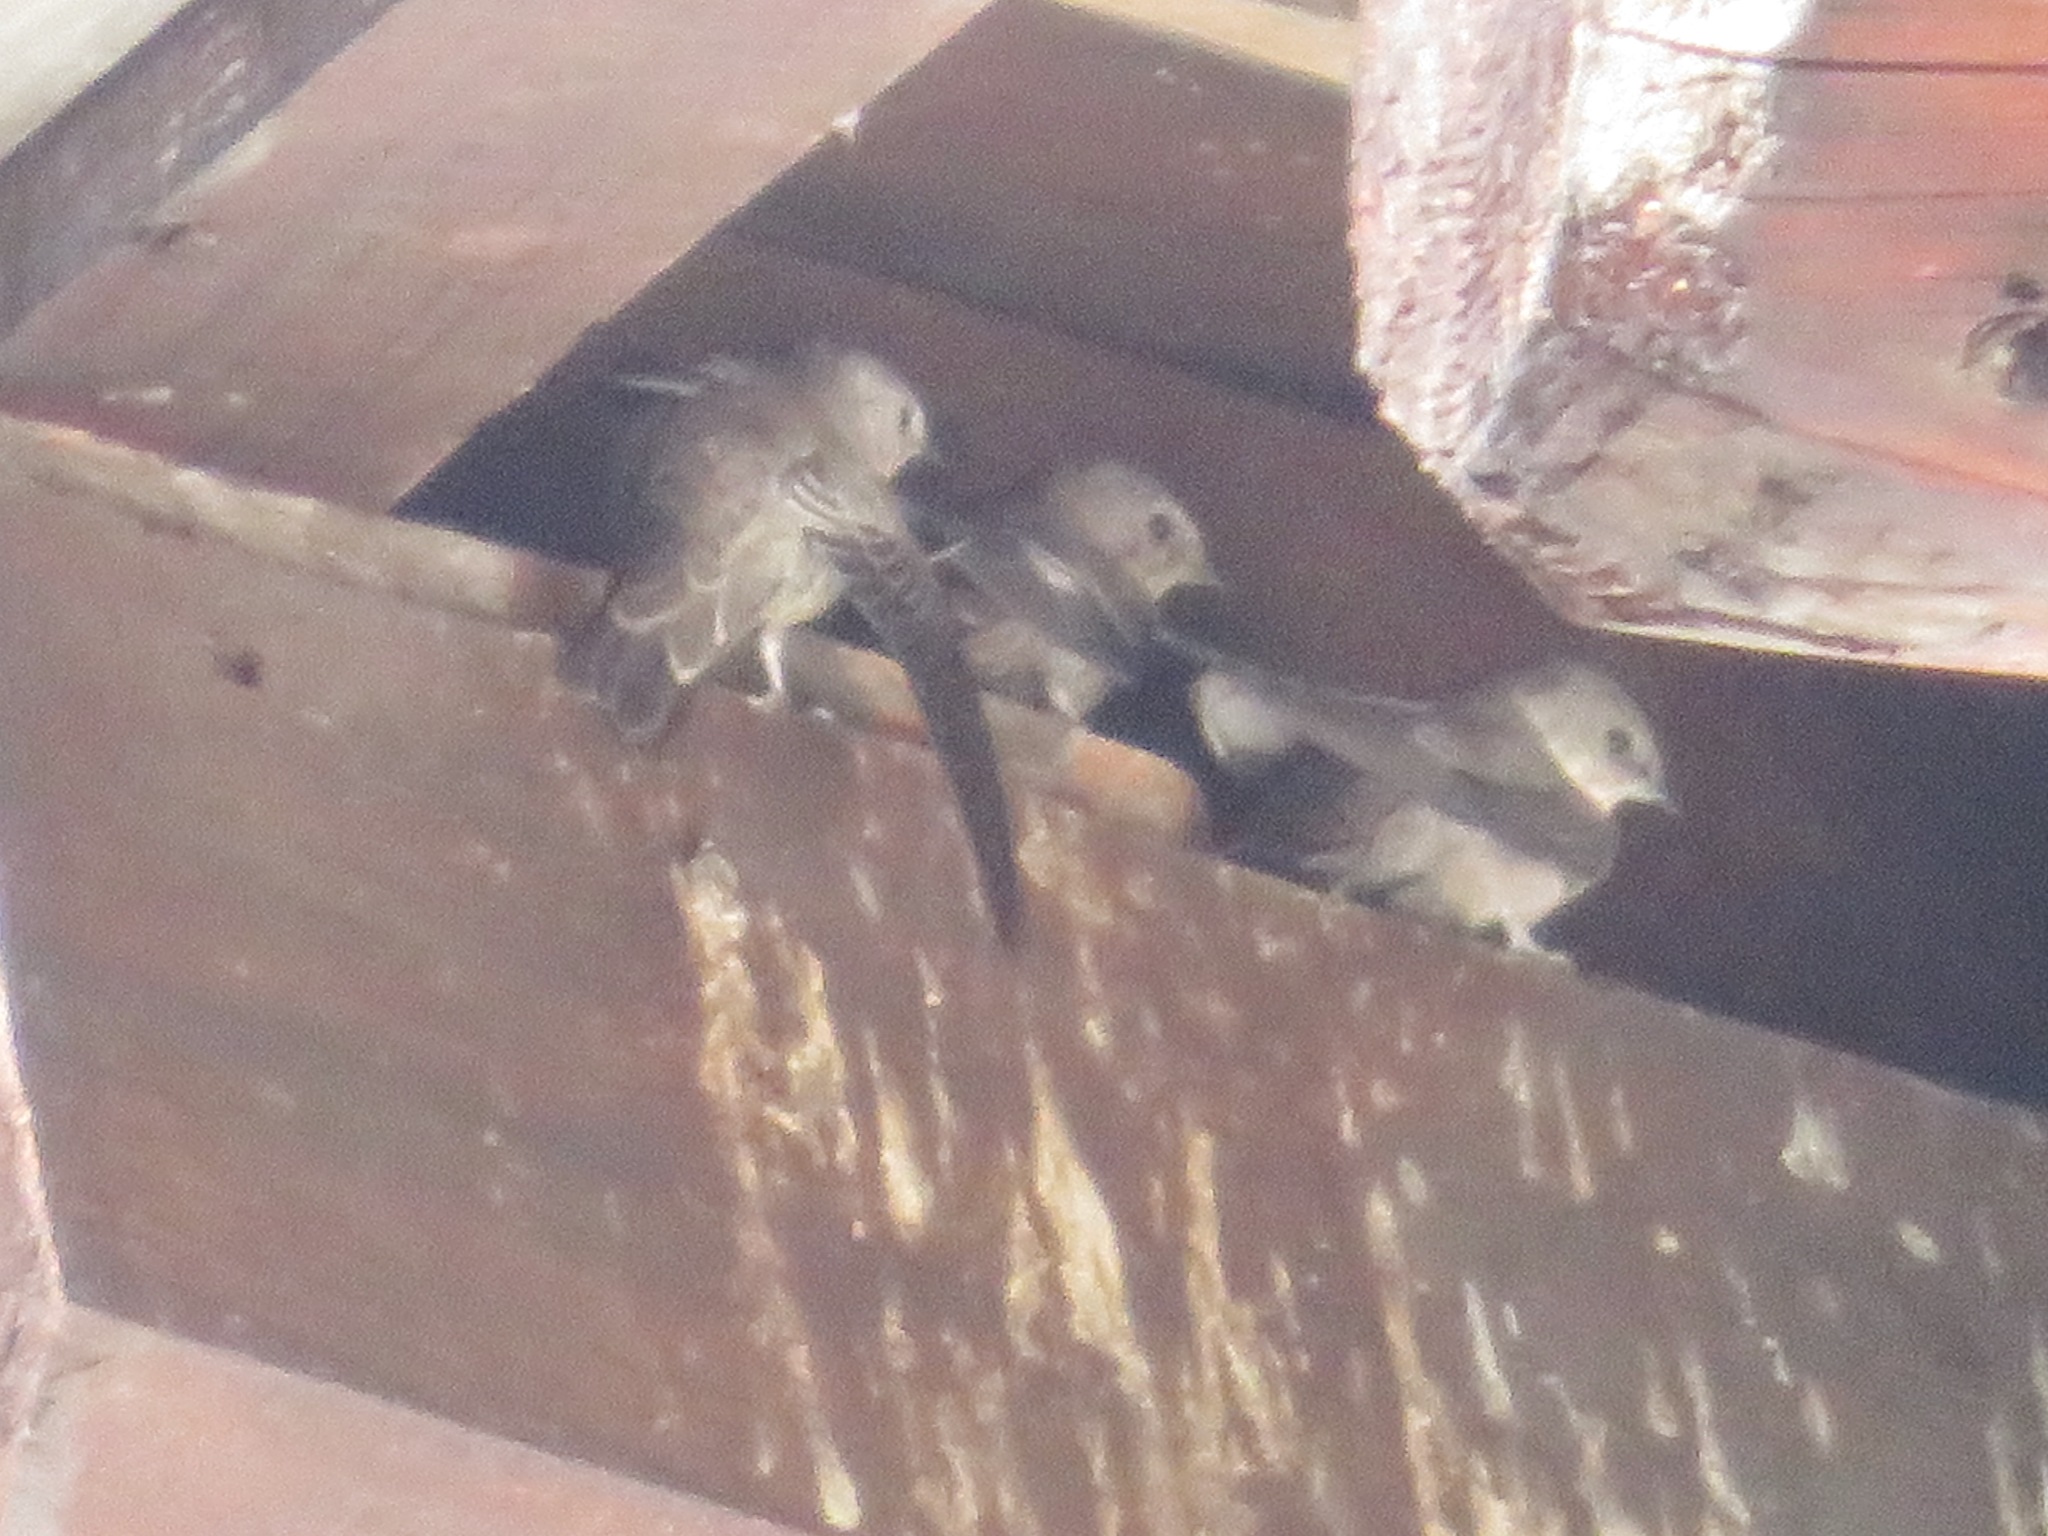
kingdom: Animalia
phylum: Chordata
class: Aves
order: Passeriformes
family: Hirundinidae
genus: Ptyonoprogne
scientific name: Ptyonoprogne rupestris
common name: Eurasian crag martin
